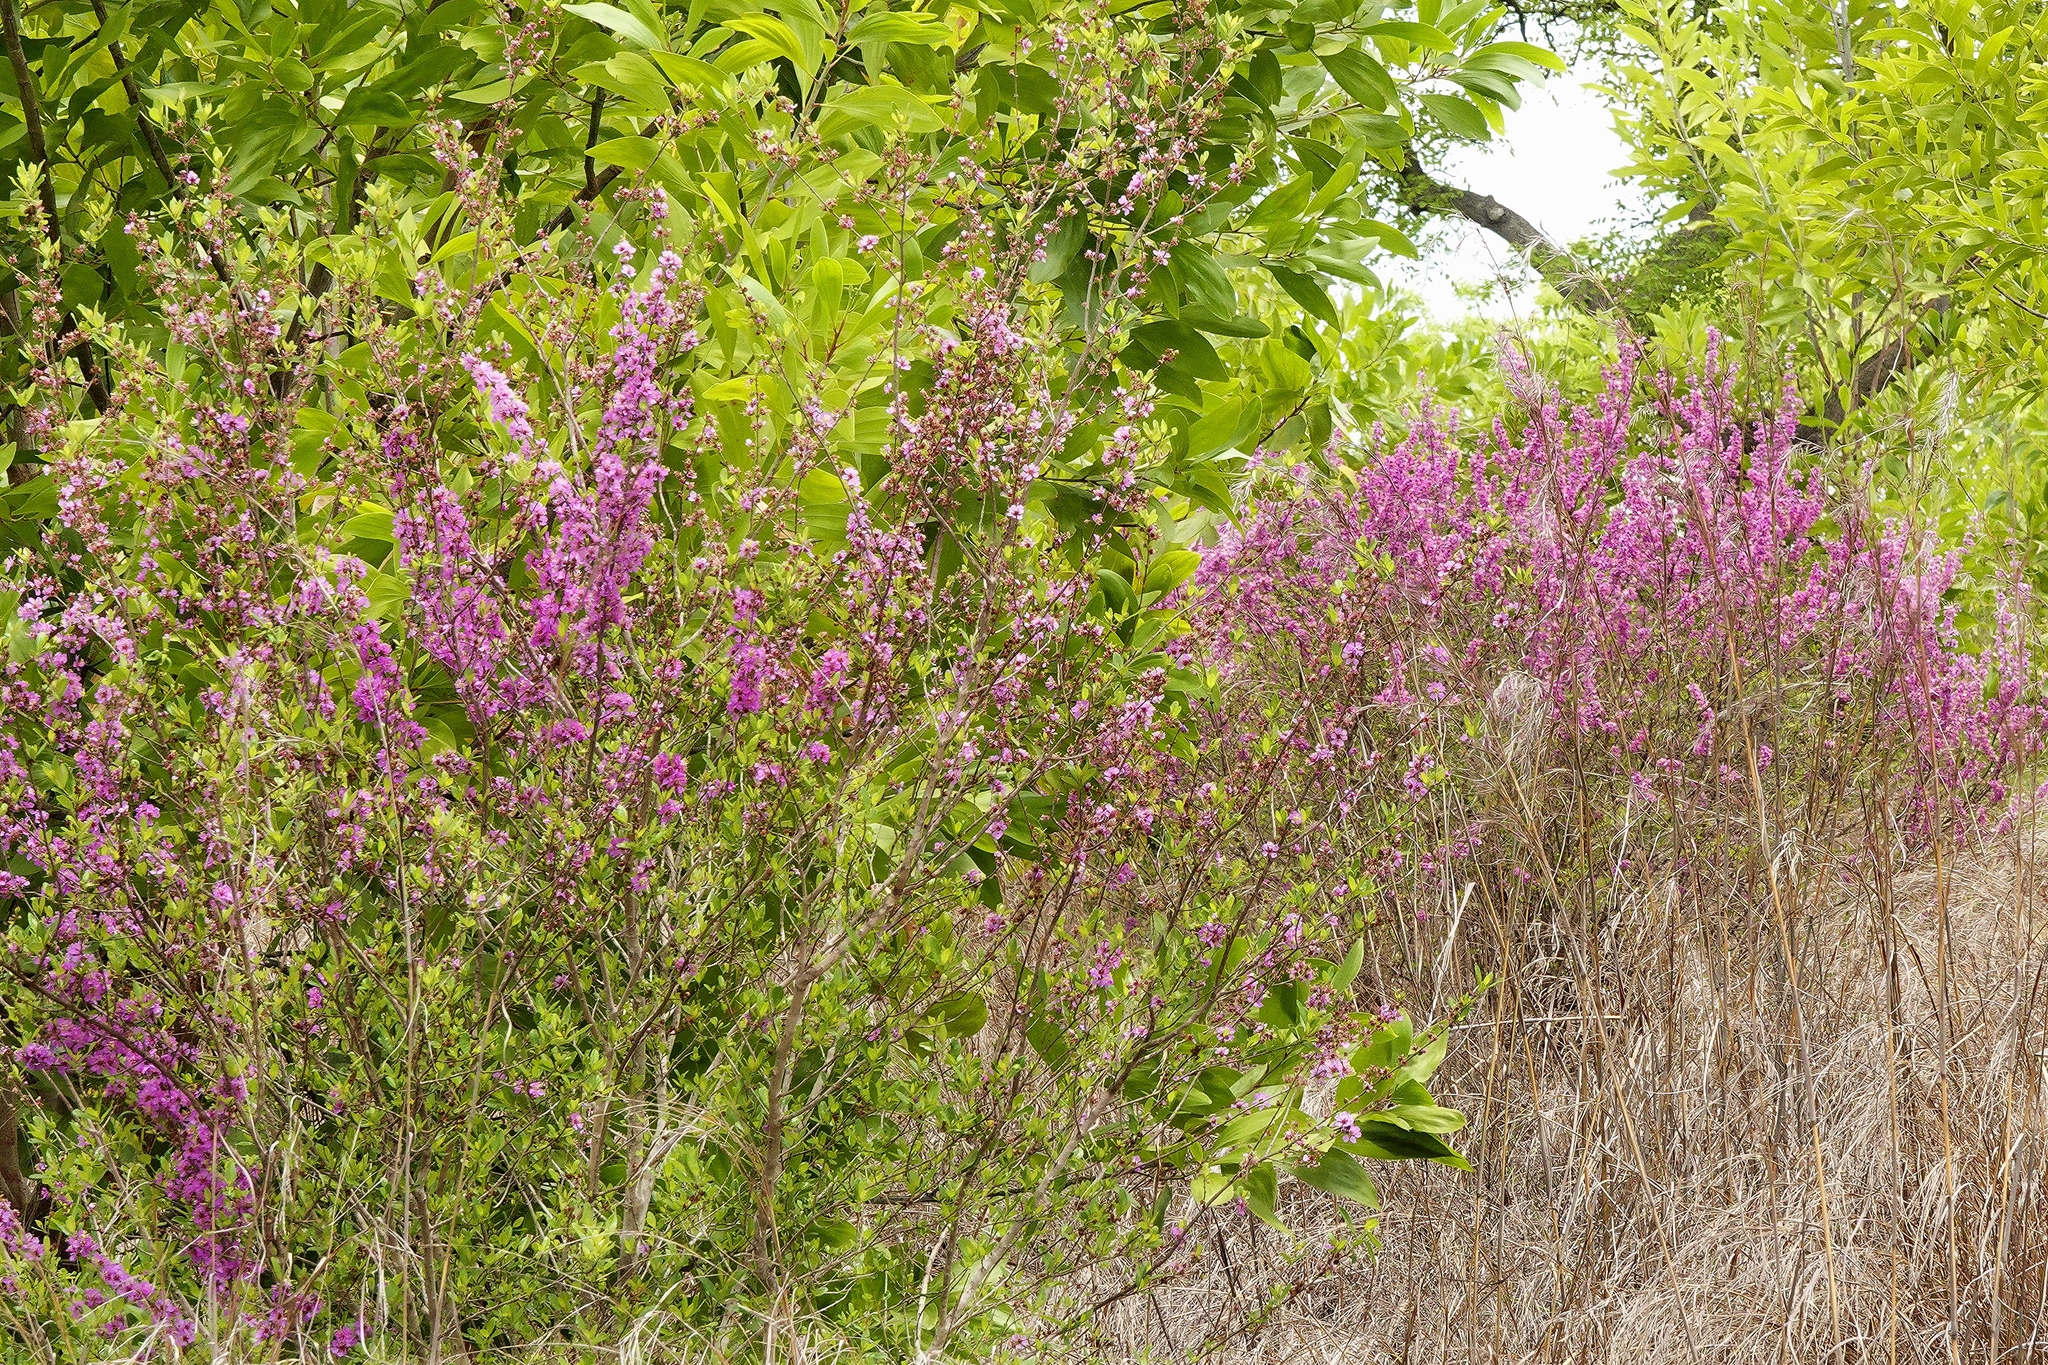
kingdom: Plantae
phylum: Tracheophyta
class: Magnoliopsida
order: Myrtales
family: Lythraceae
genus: Koehneria
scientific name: Koehneria madagascariensis
